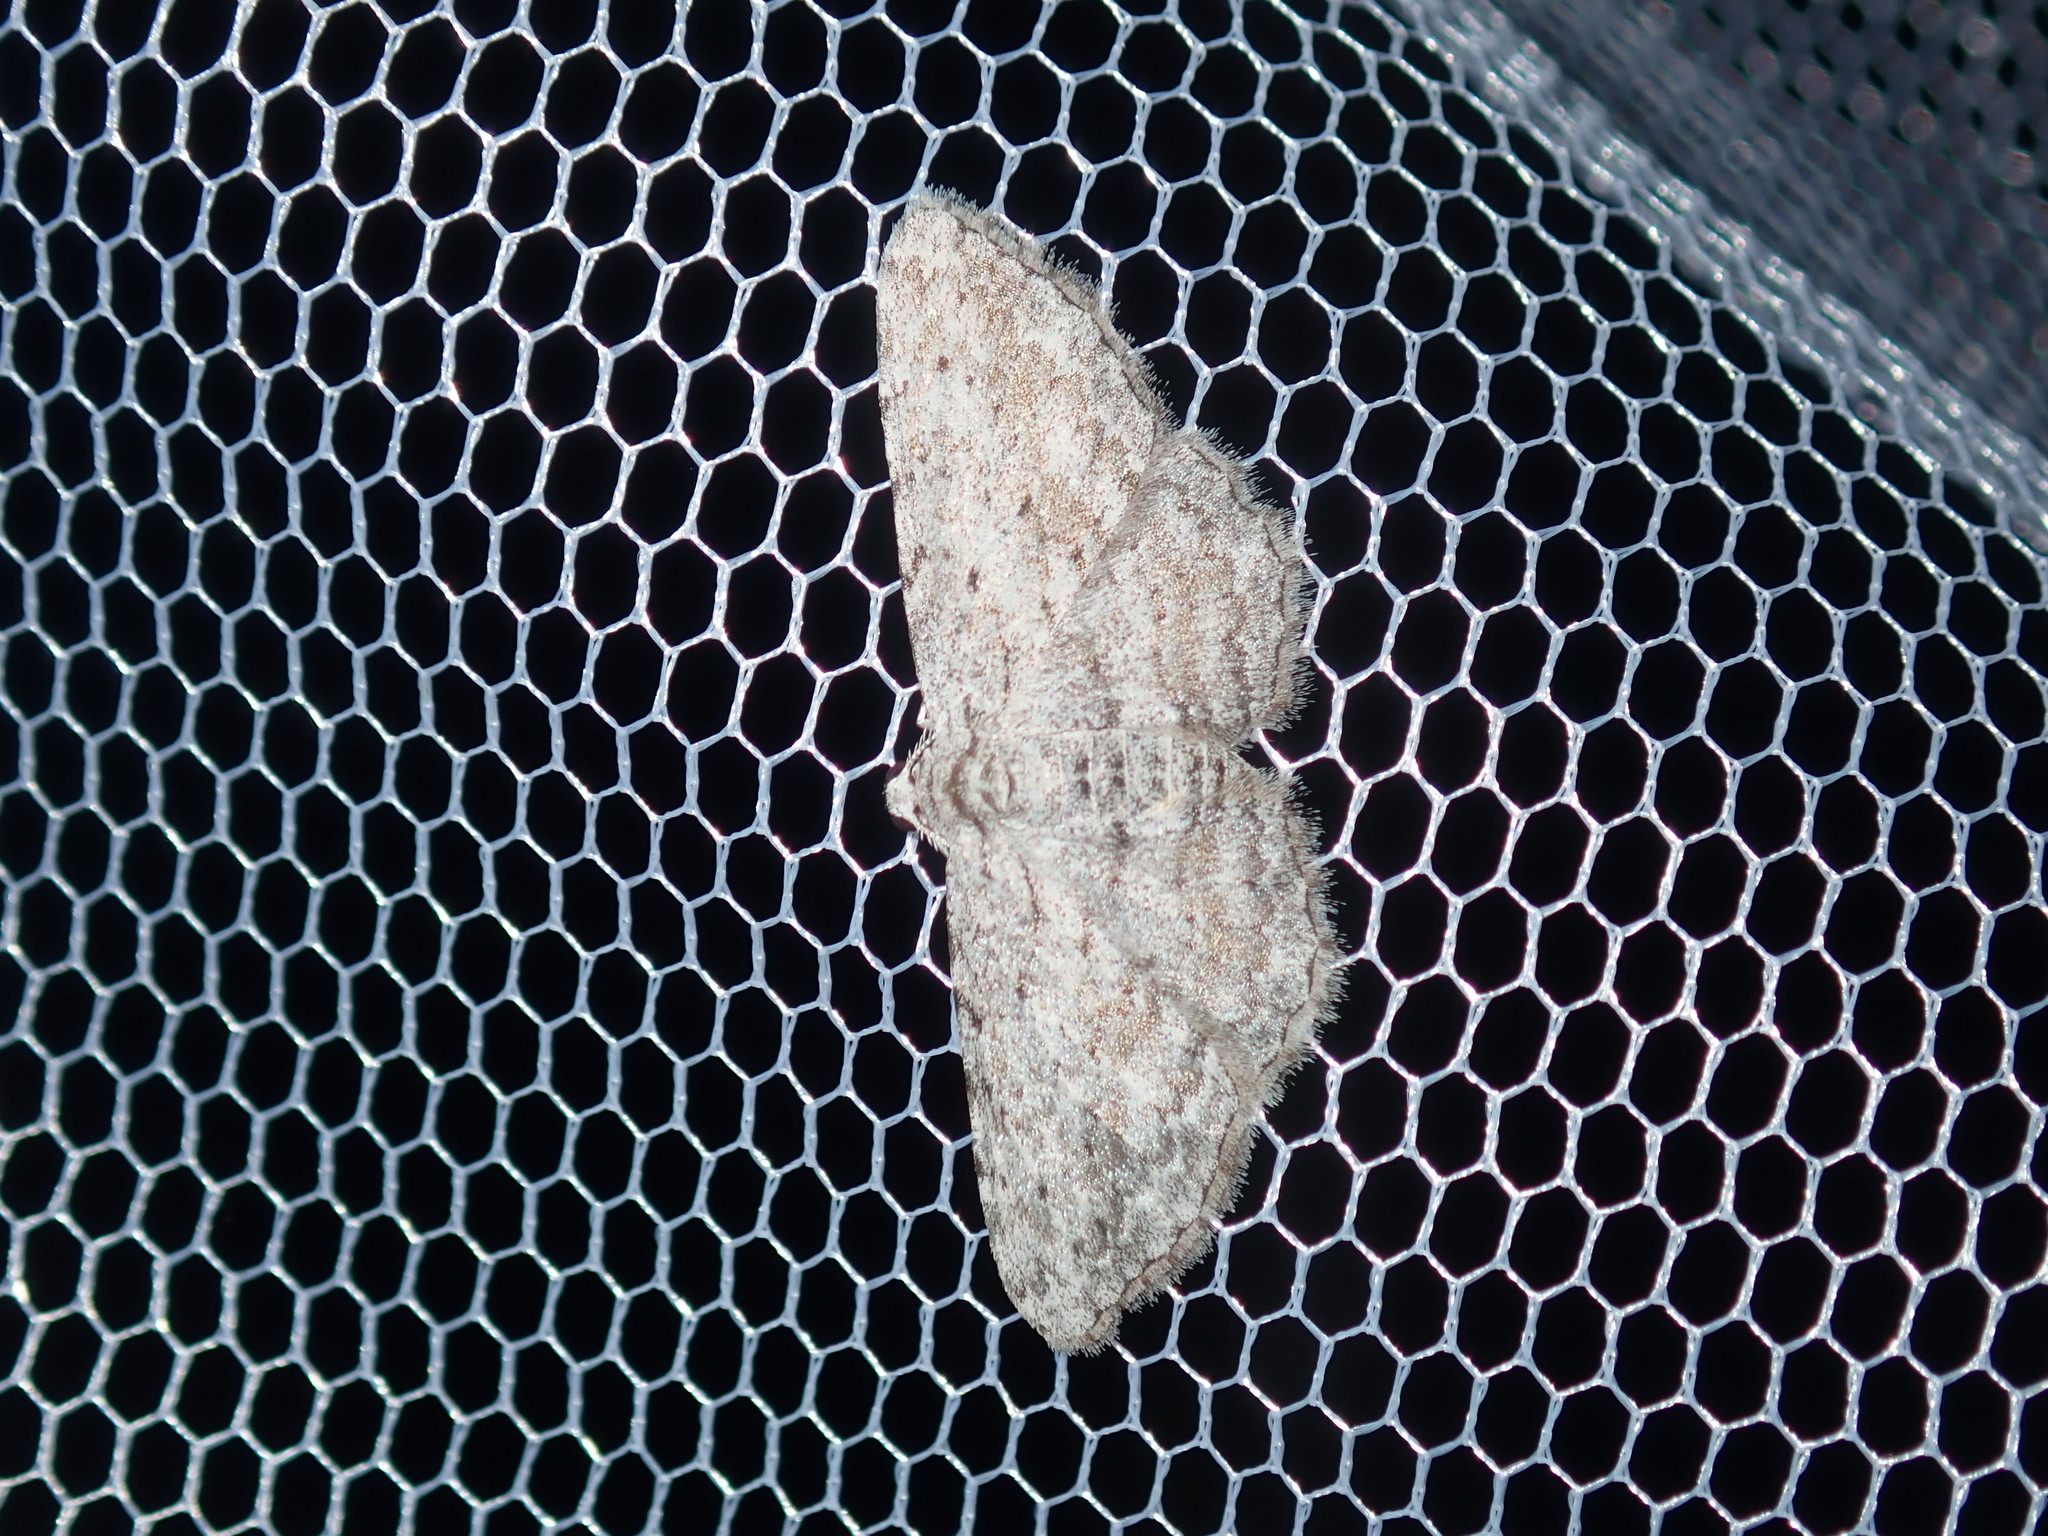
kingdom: Animalia
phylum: Arthropoda
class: Insecta
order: Lepidoptera
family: Geometridae
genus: Phelotis
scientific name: Phelotis cognata
